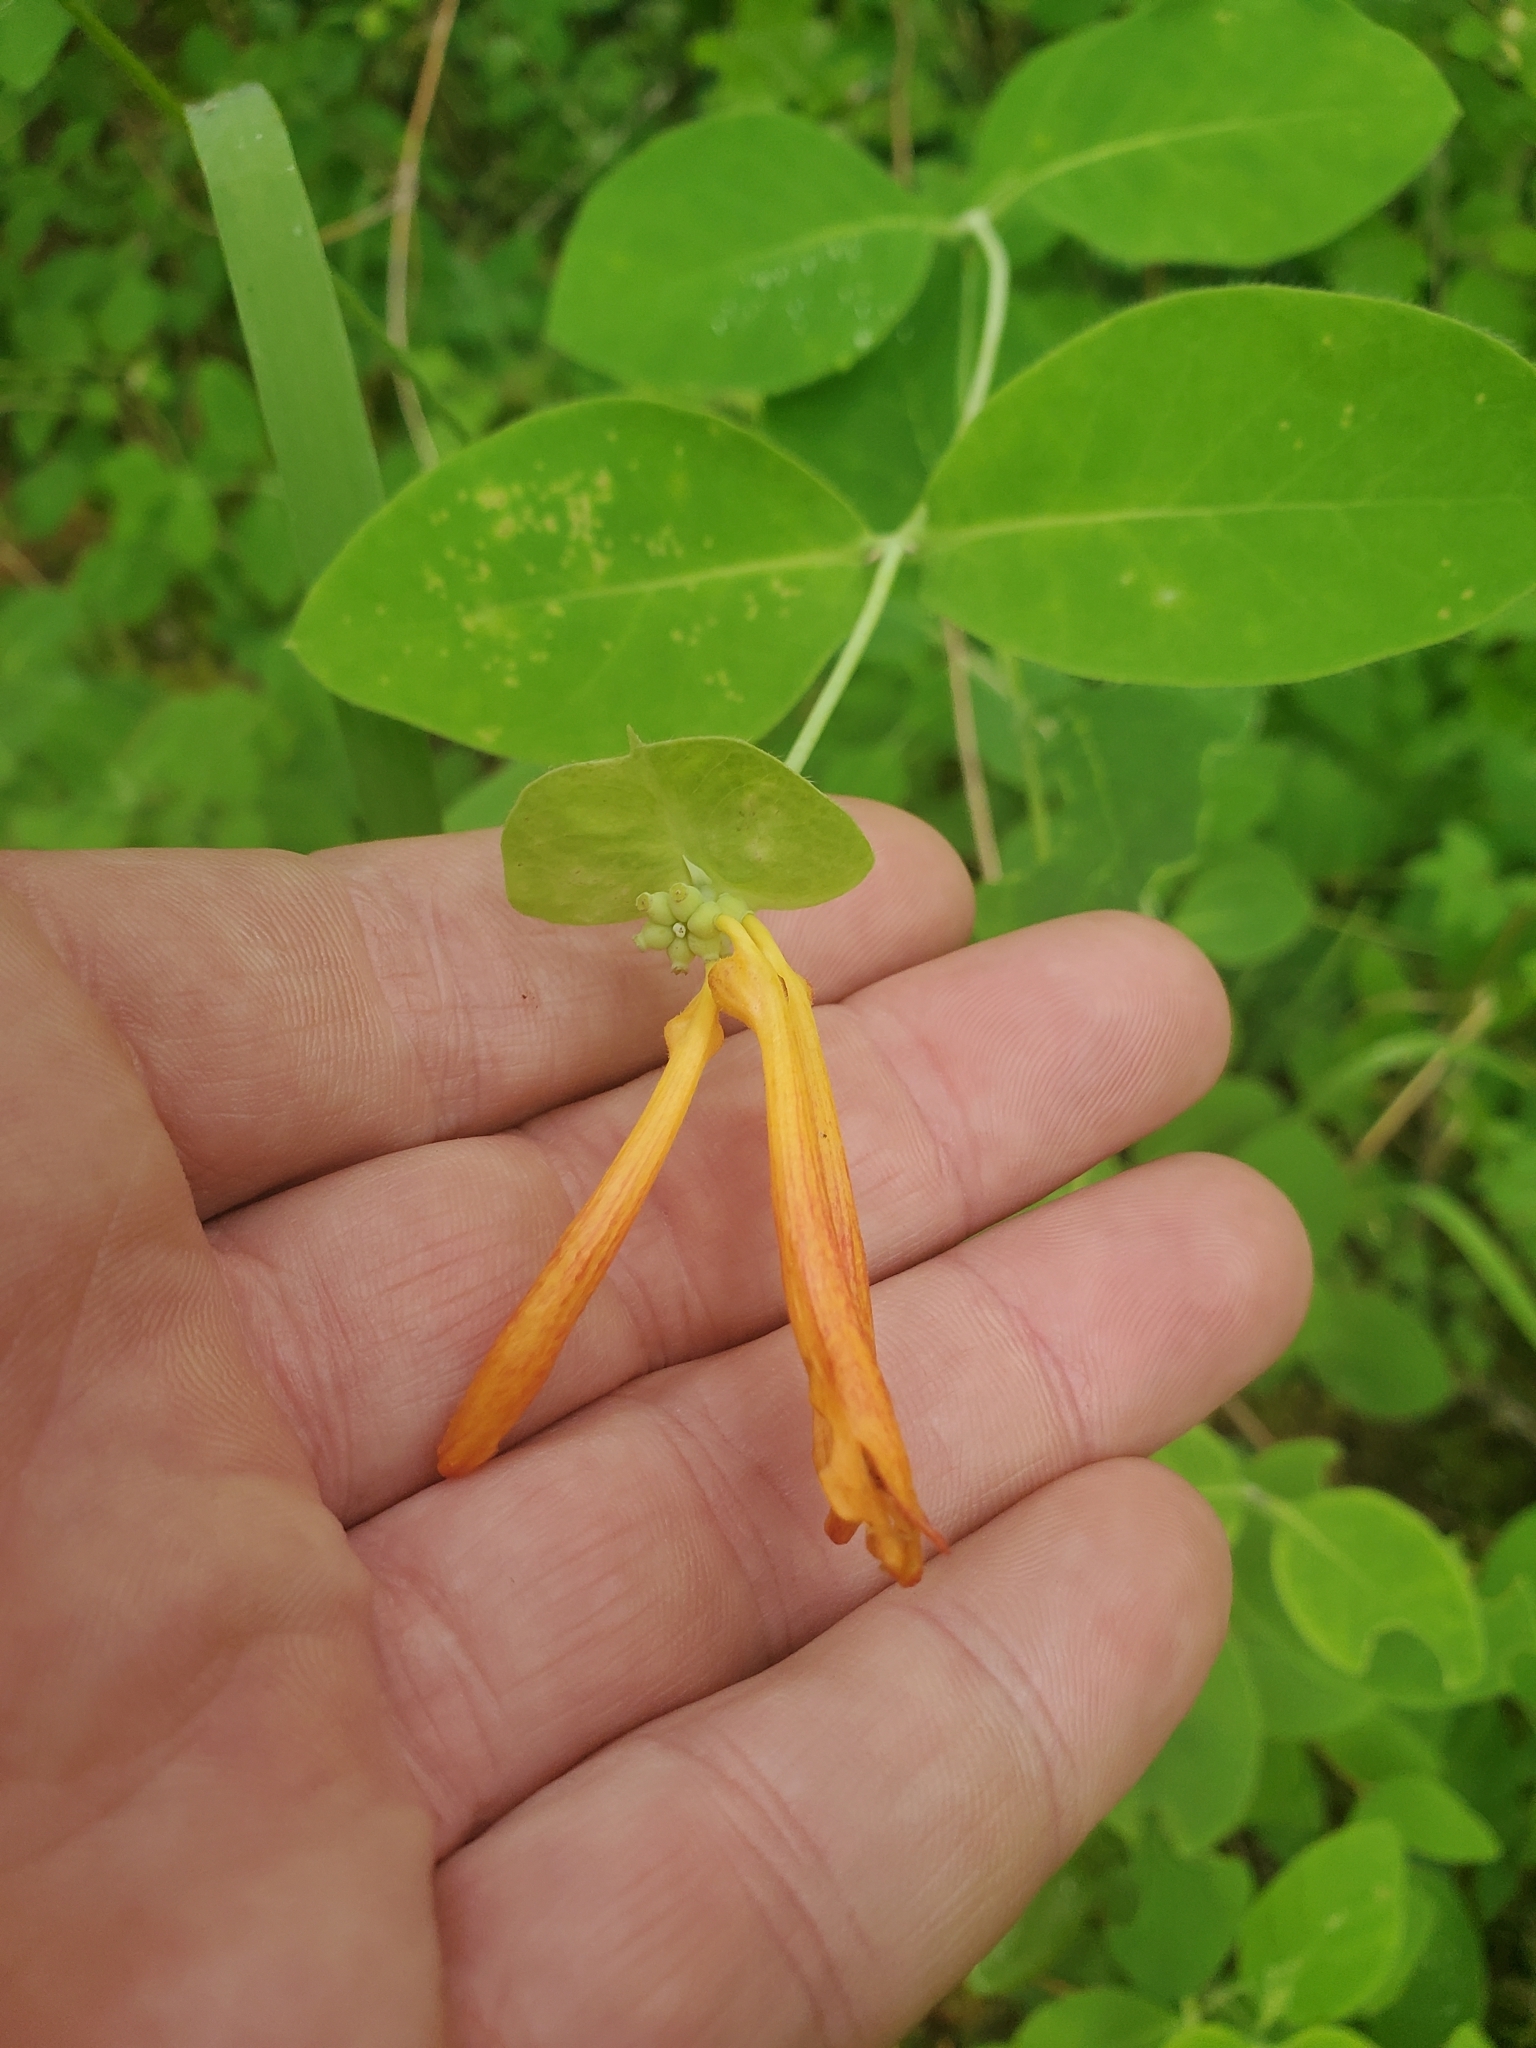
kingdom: Plantae
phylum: Tracheophyta
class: Magnoliopsida
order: Dipsacales
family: Caprifoliaceae
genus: Lonicera
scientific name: Lonicera ciliosa
